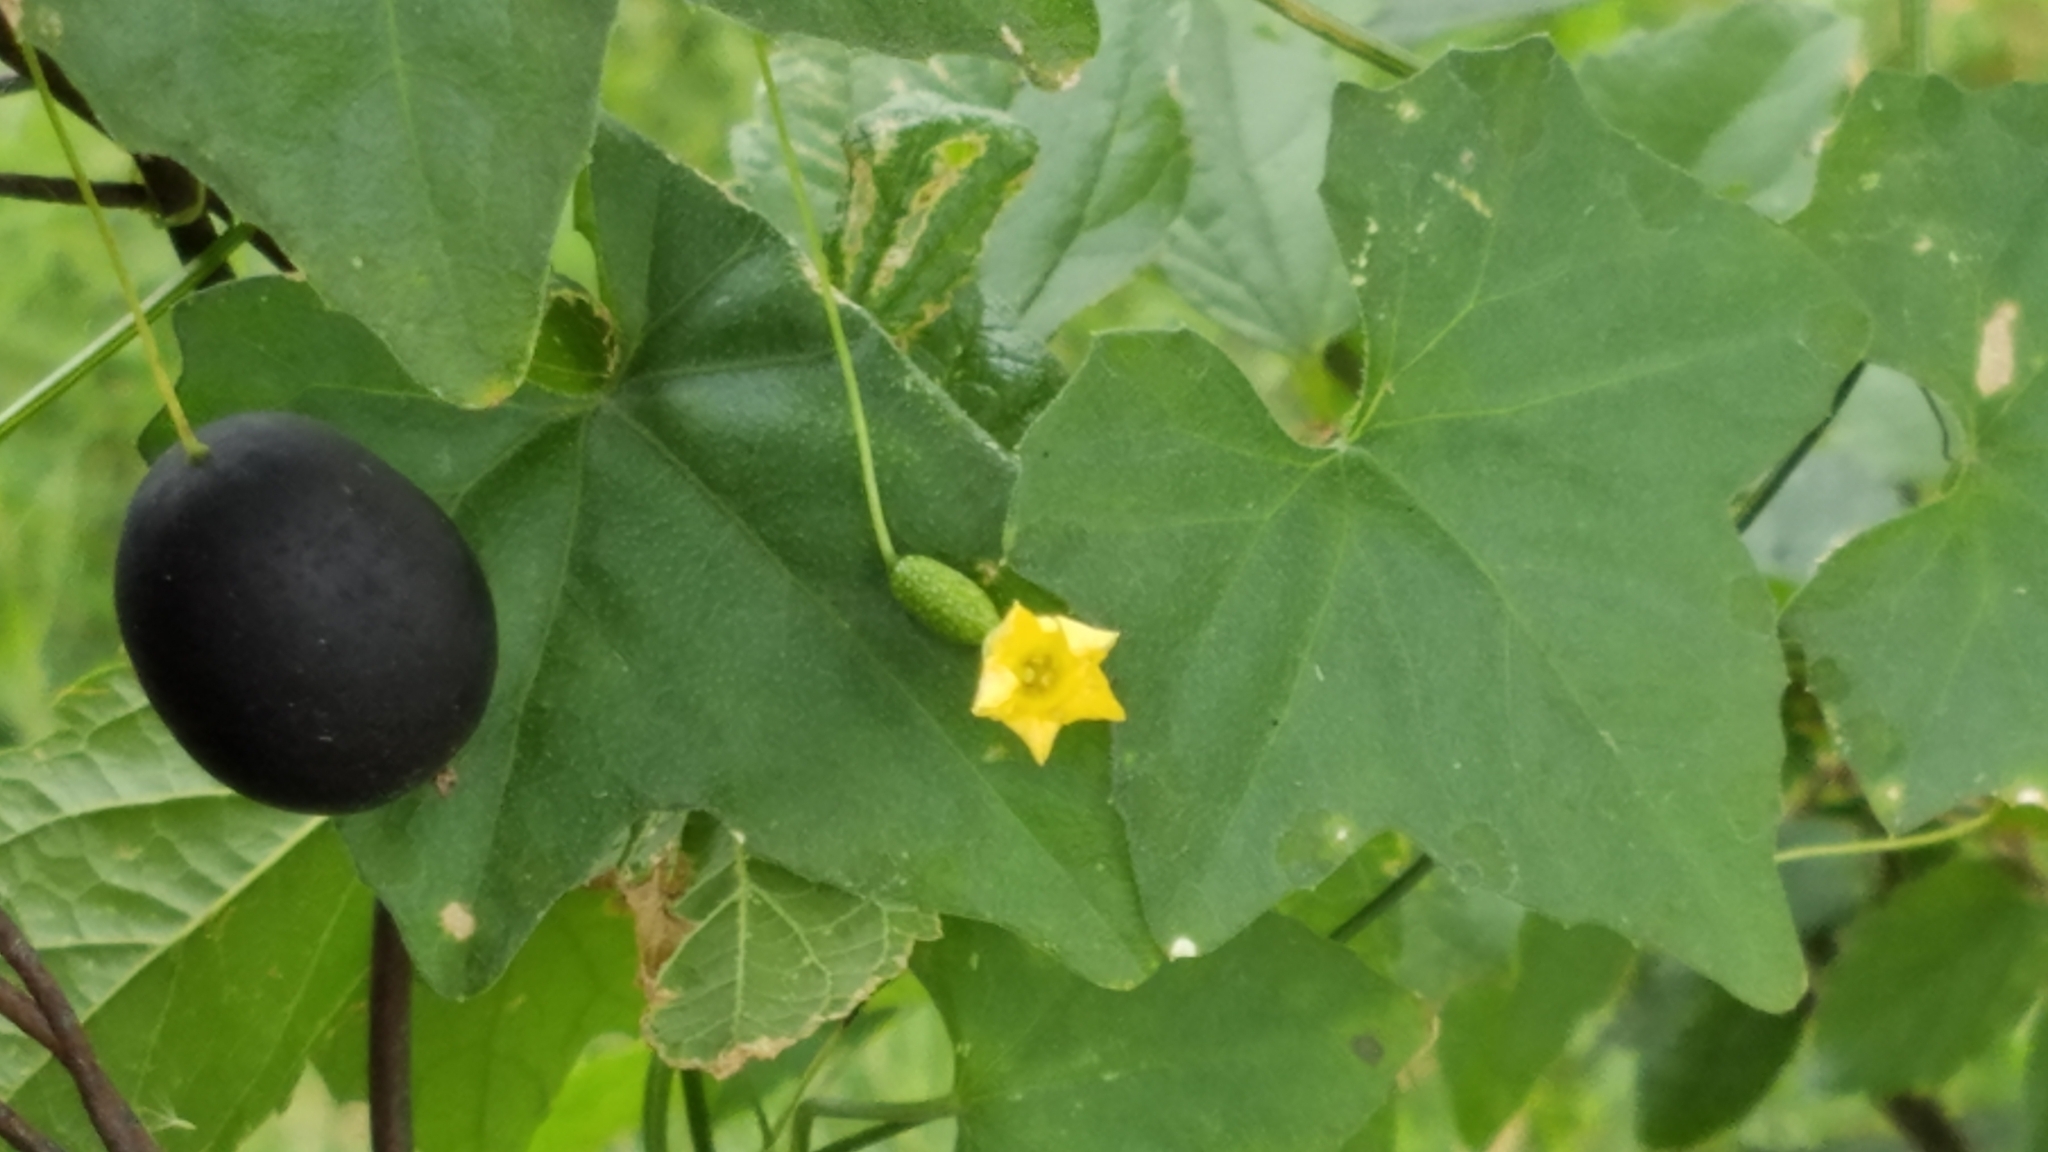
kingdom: Plantae
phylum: Tracheophyta
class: Magnoliopsida
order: Cucurbitales
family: Cucurbitaceae
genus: Melothria
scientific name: Melothria pendula
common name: Creeping-cucumber
